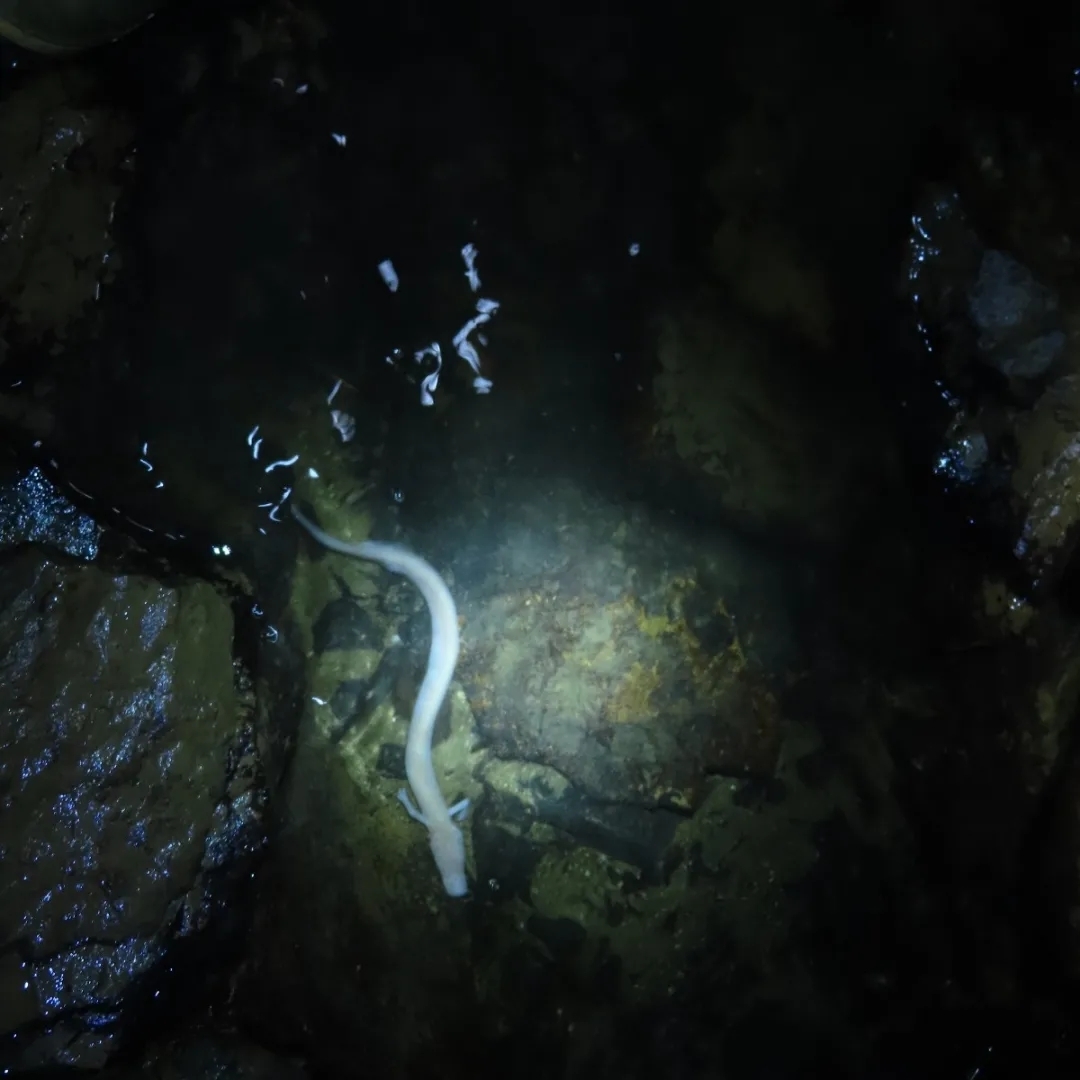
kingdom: Animalia
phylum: Chordata
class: Amphibia
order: Caudata
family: Proteidae
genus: Proteus
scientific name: Proteus anguinus
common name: Olm
